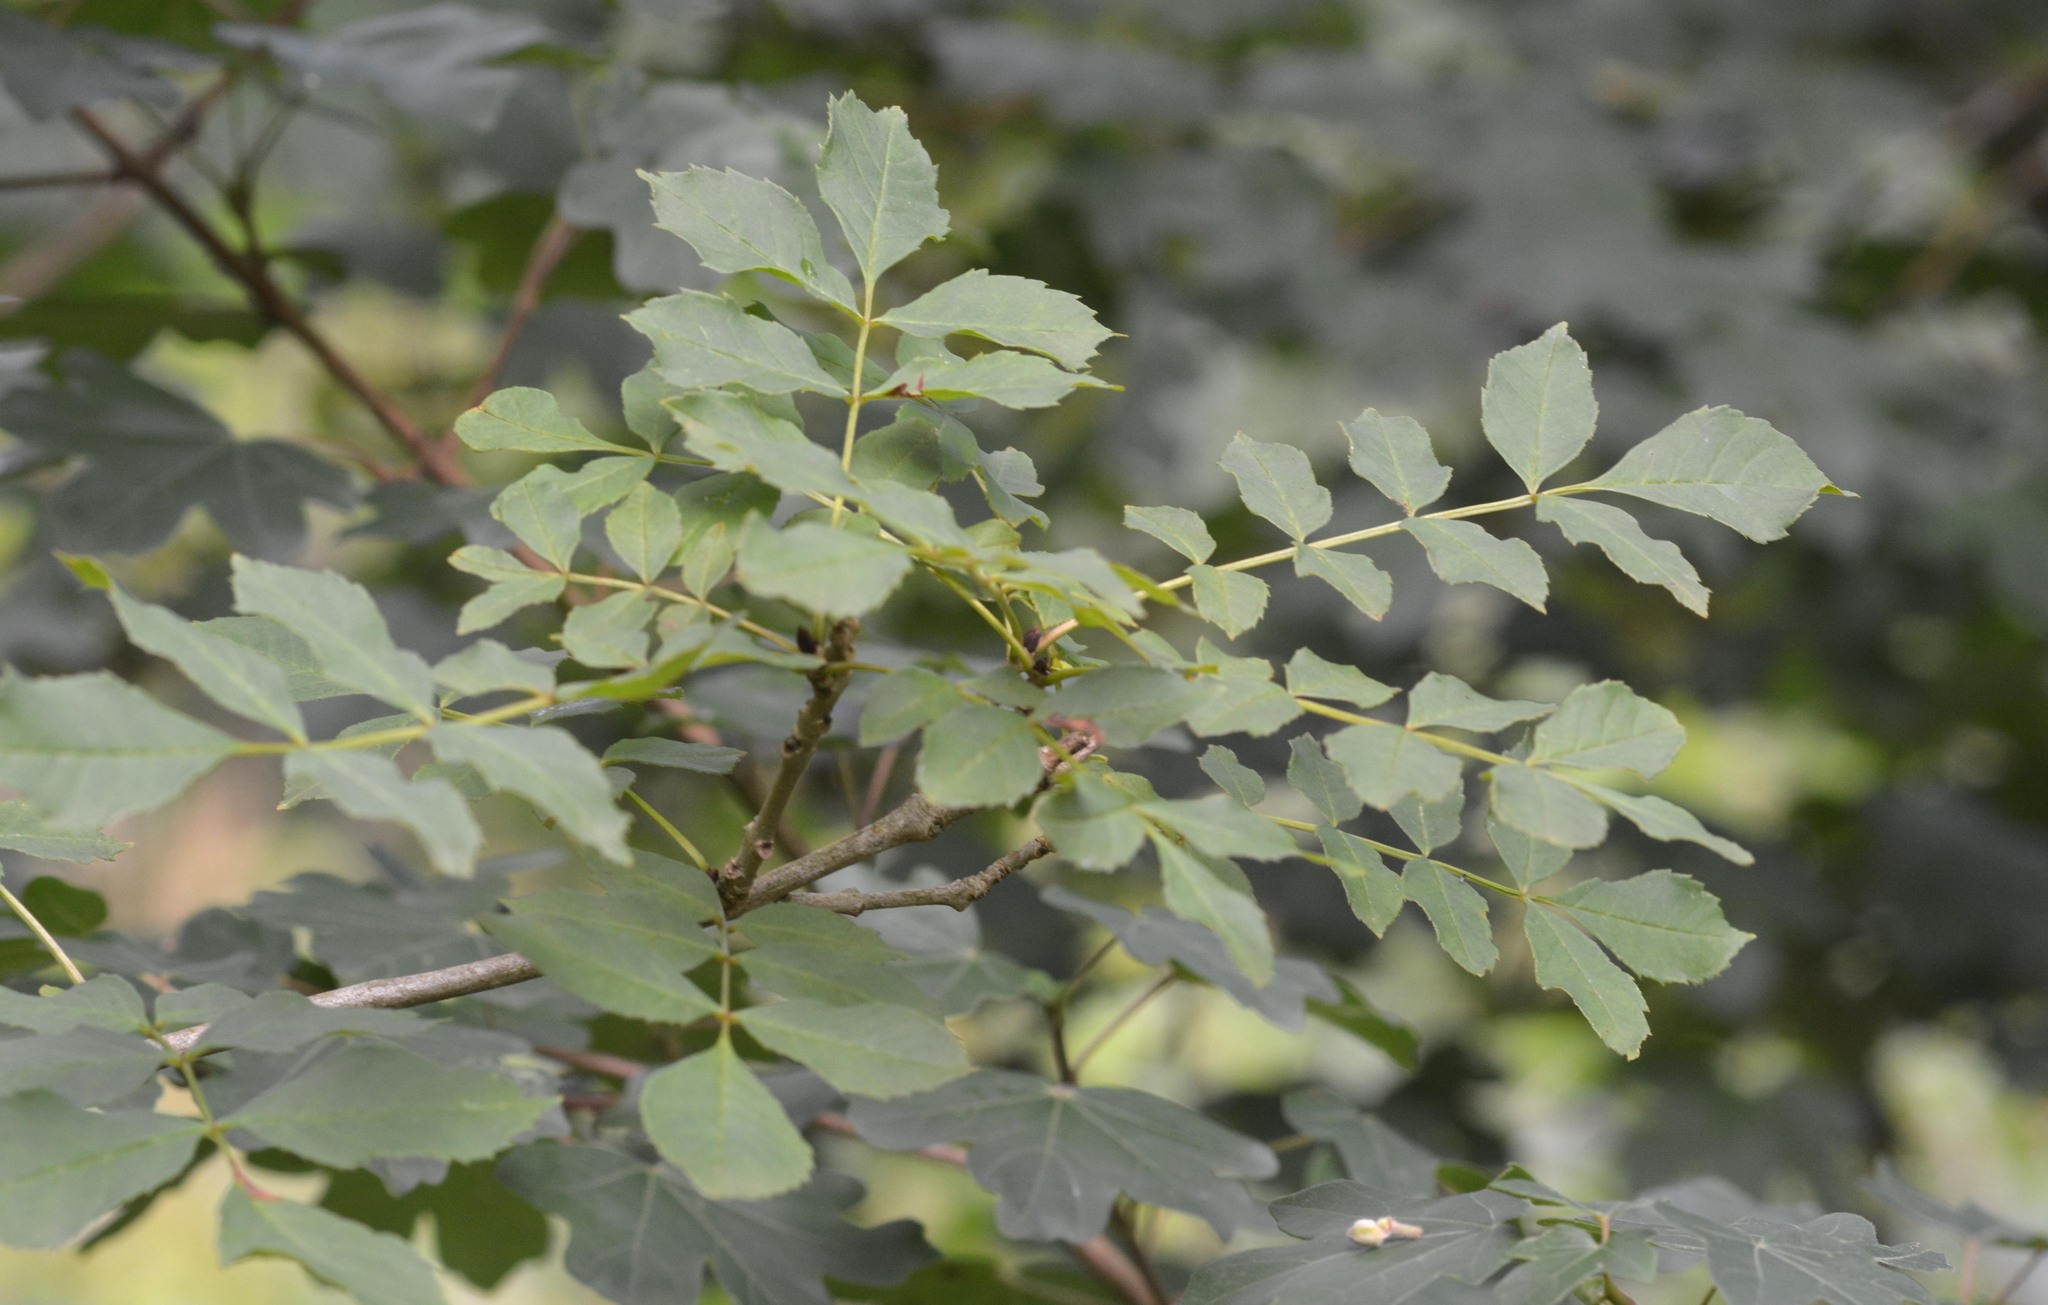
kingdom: Plantae
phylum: Tracheophyta
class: Magnoliopsida
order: Lamiales
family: Oleaceae
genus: Fraxinus
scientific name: Fraxinus excelsior
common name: European ash
